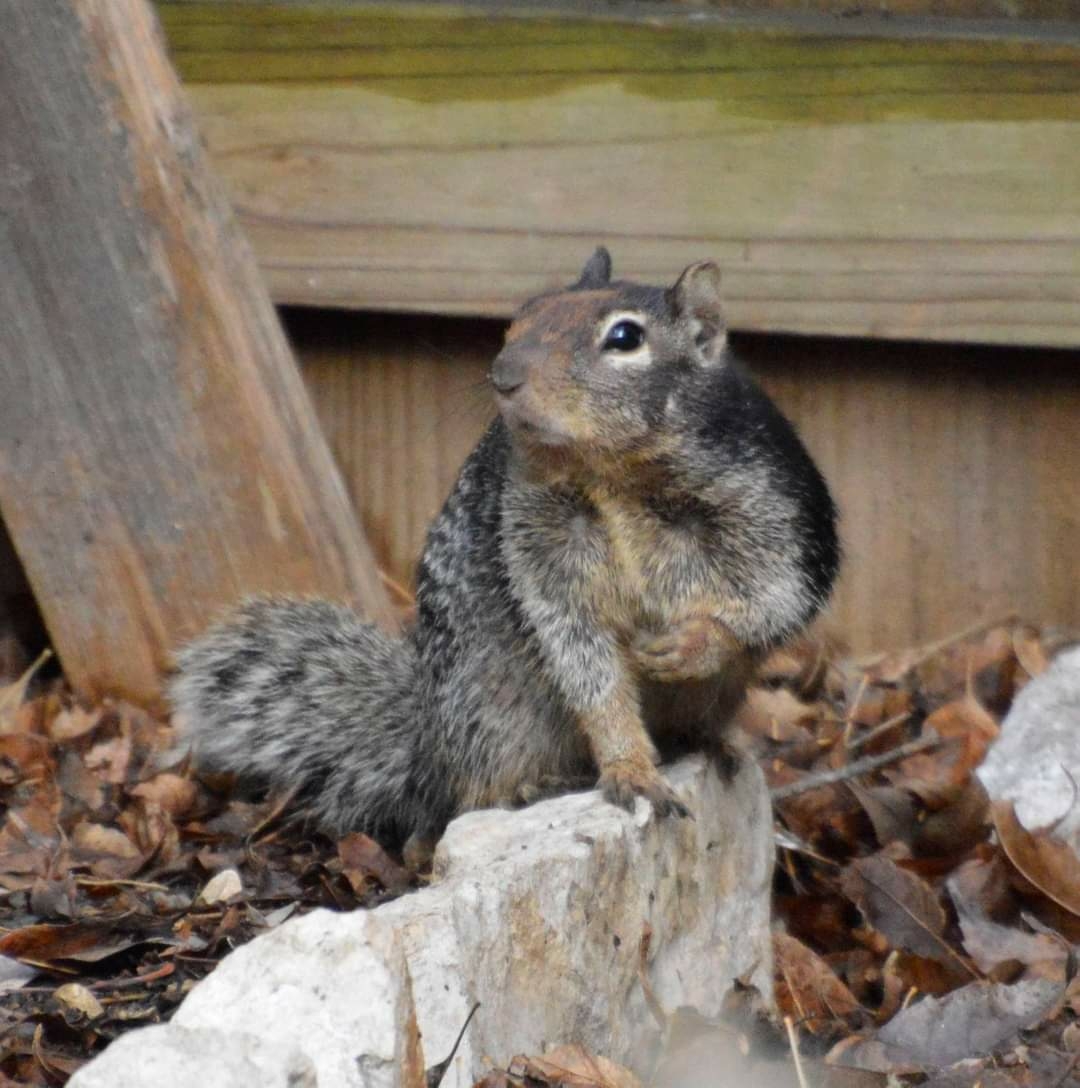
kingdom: Animalia
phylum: Chordata
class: Mammalia
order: Rodentia
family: Sciuridae
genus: Otospermophilus
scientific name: Otospermophilus variegatus
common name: Rock squirrel
